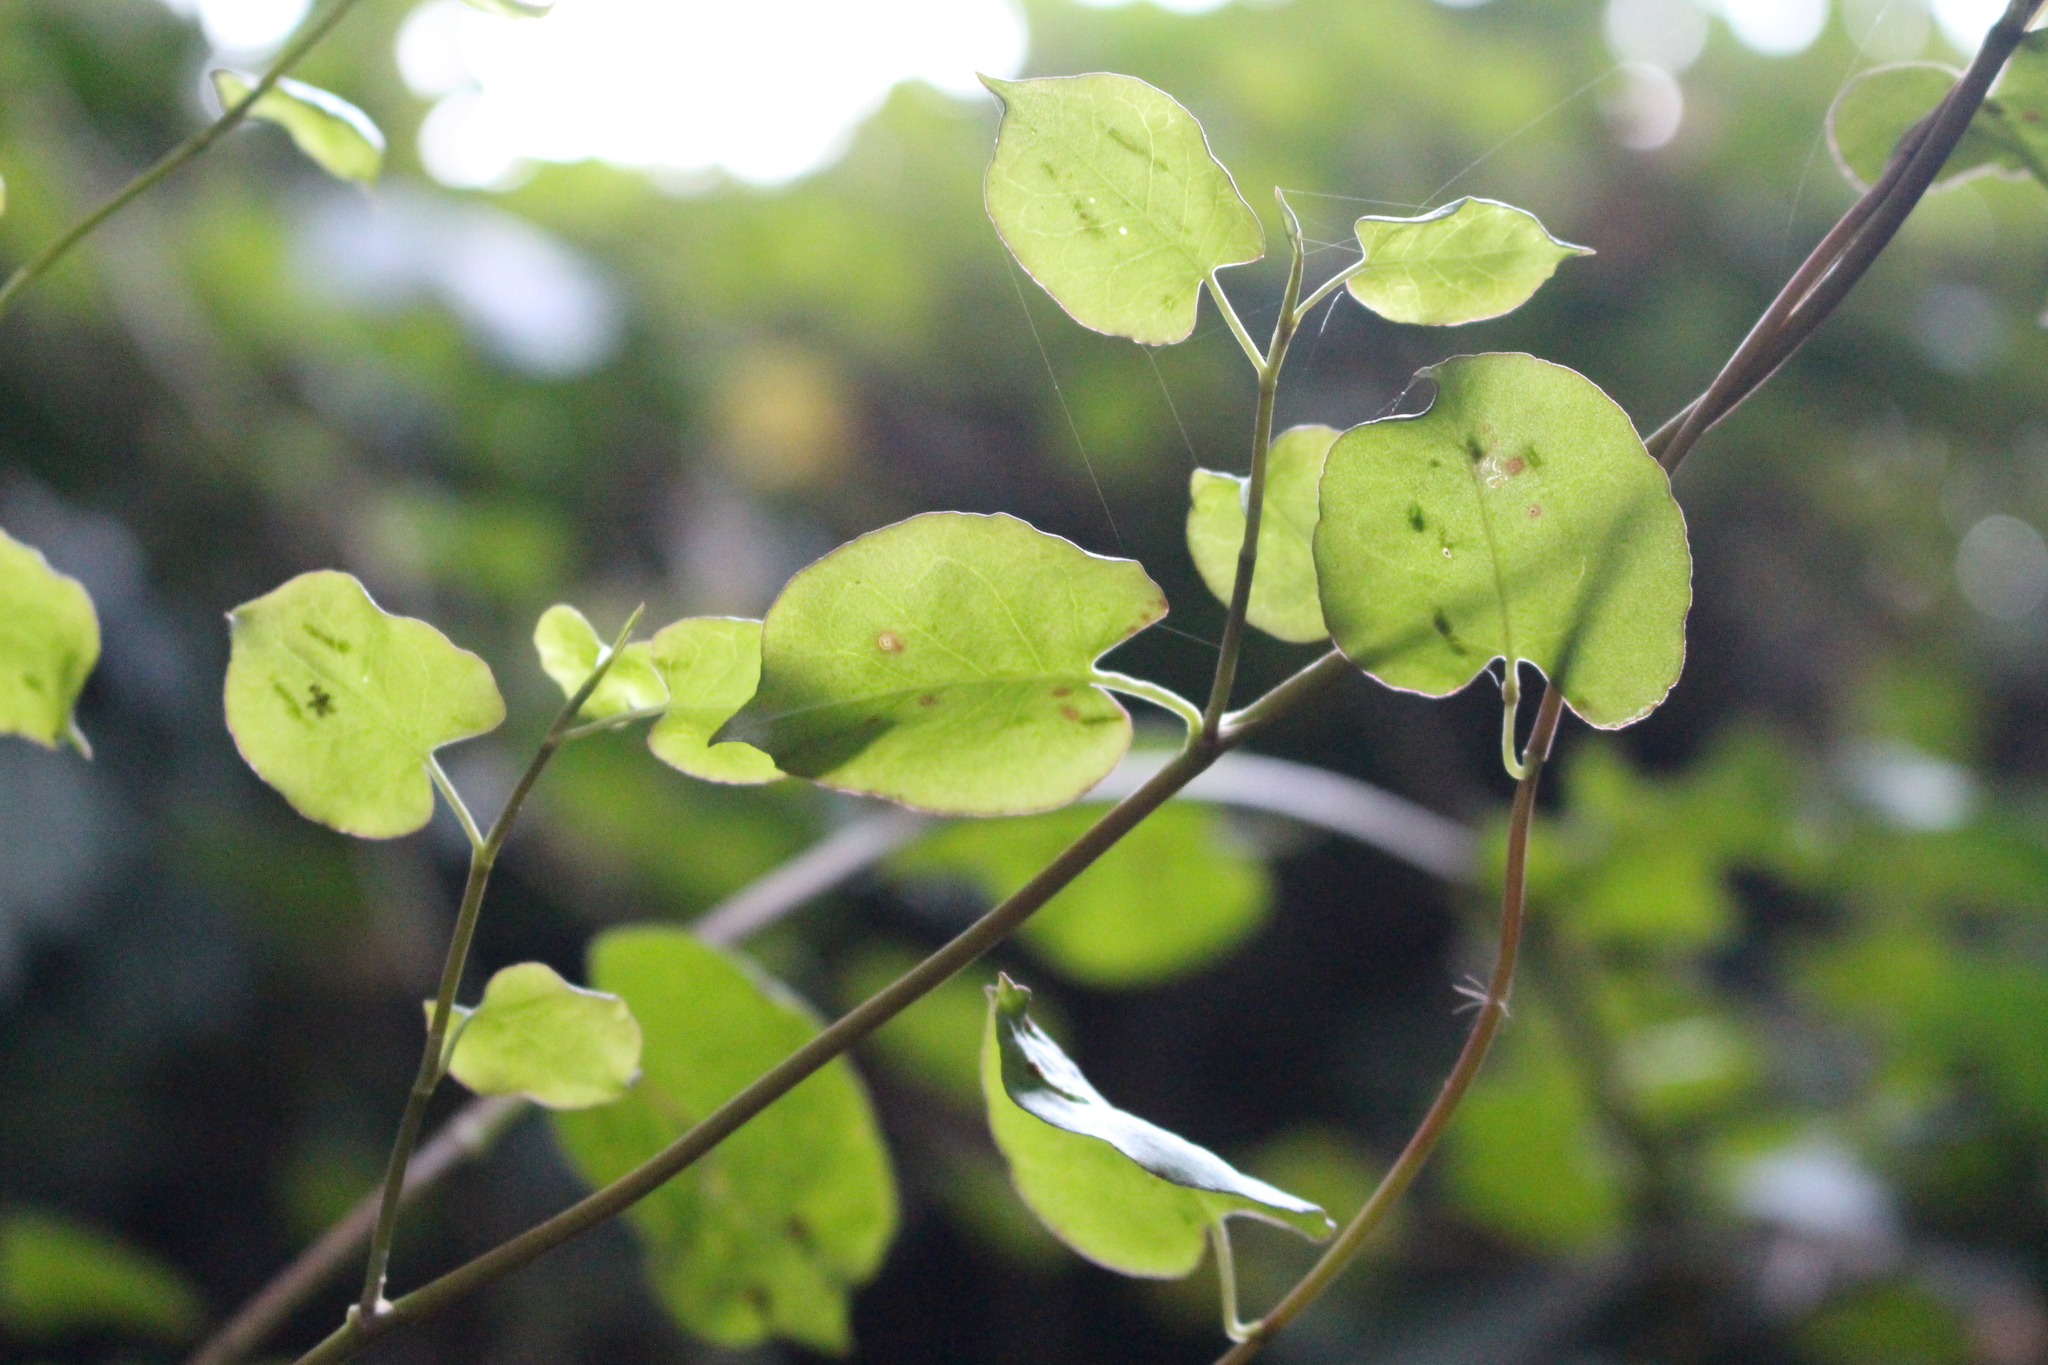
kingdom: Plantae
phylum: Tracheophyta
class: Magnoliopsida
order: Caryophyllales
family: Polygonaceae
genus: Muehlenbeckia
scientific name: Muehlenbeckia australis
